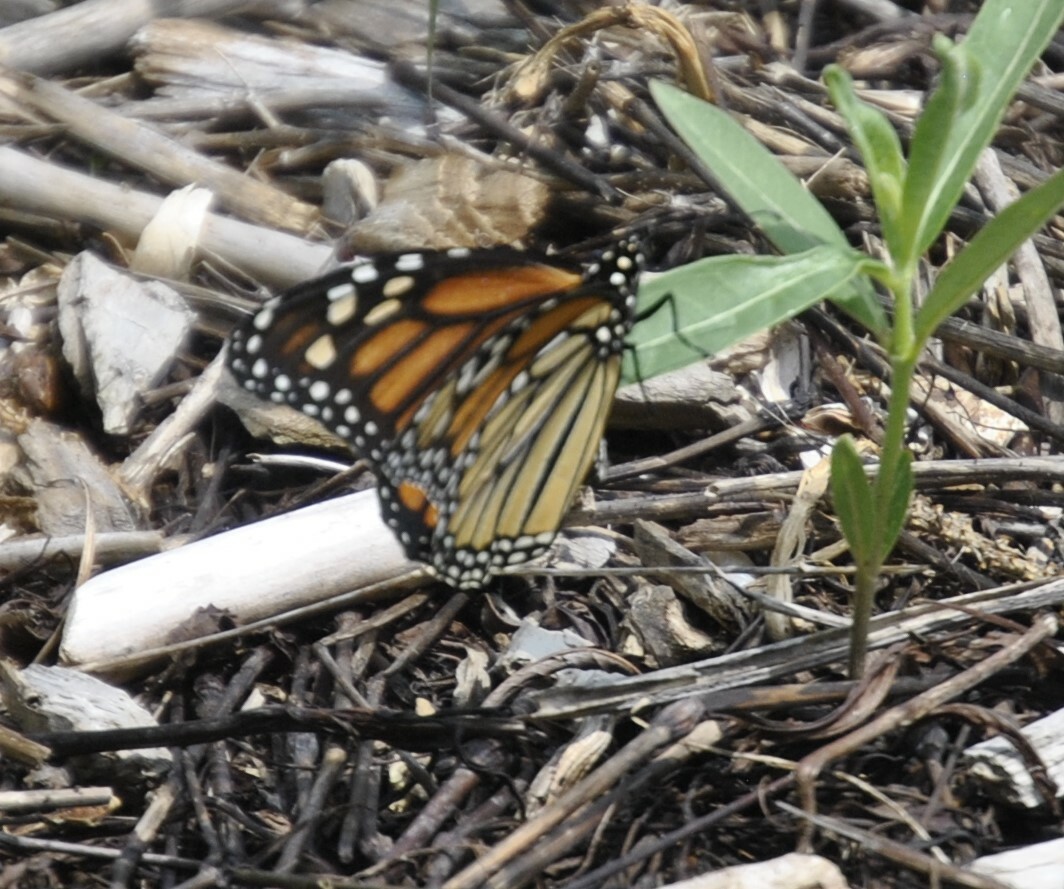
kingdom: Animalia
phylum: Arthropoda
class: Insecta
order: Lepidoptera
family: Nymphalidae
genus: Danaus
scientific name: Danaus plexippus
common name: Monarch
